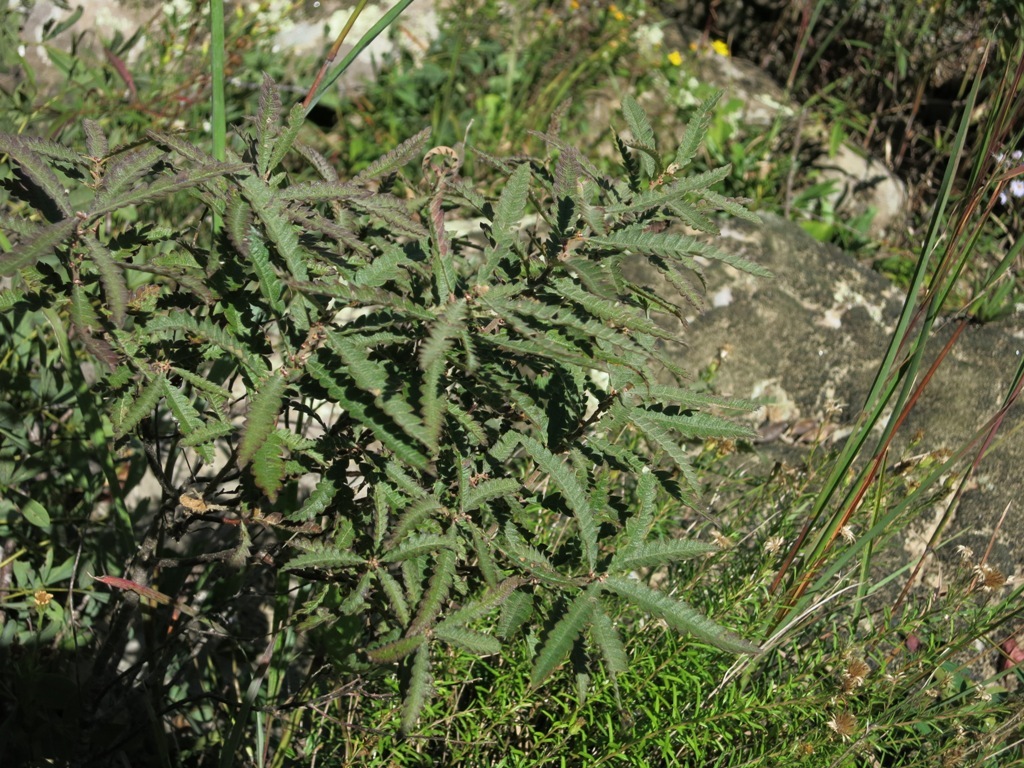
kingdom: Plantae
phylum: Tracheophyta
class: Magnoliopsida
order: Fagales
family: Myricaceae
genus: Comptonia
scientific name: Comptonia peregrina
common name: Sweet-fern
